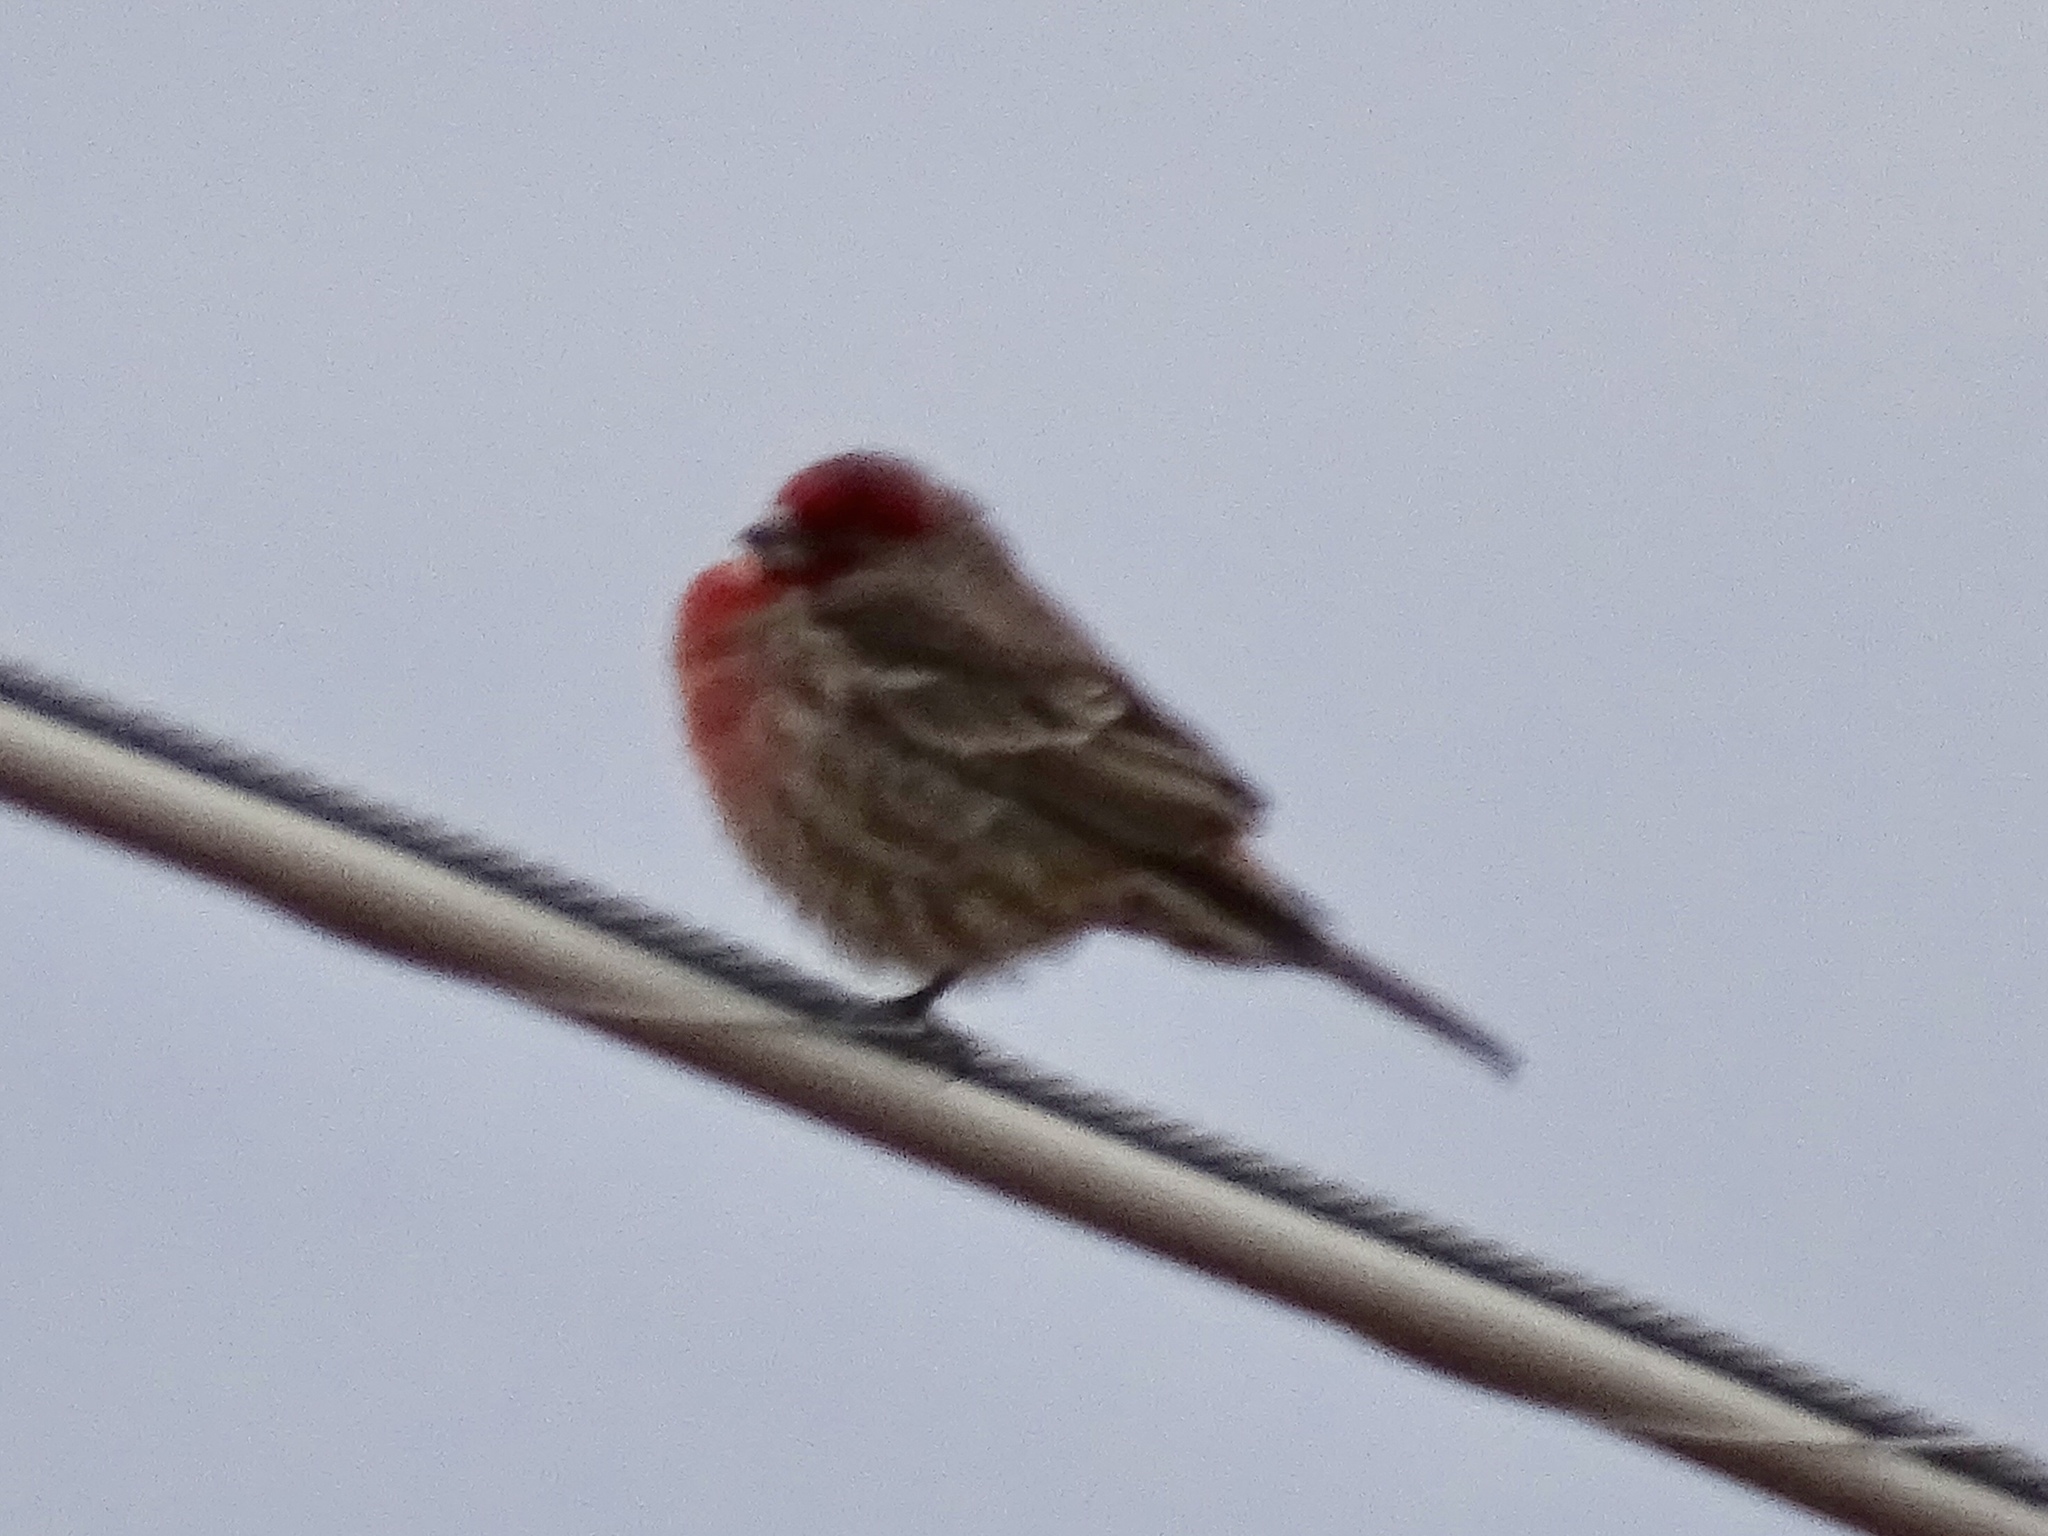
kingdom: Animalia
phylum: Chordata
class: Aves
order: Passeriformes
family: Fringillidae
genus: Haemorhous
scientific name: Haemorhous mexicanus
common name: House finch
